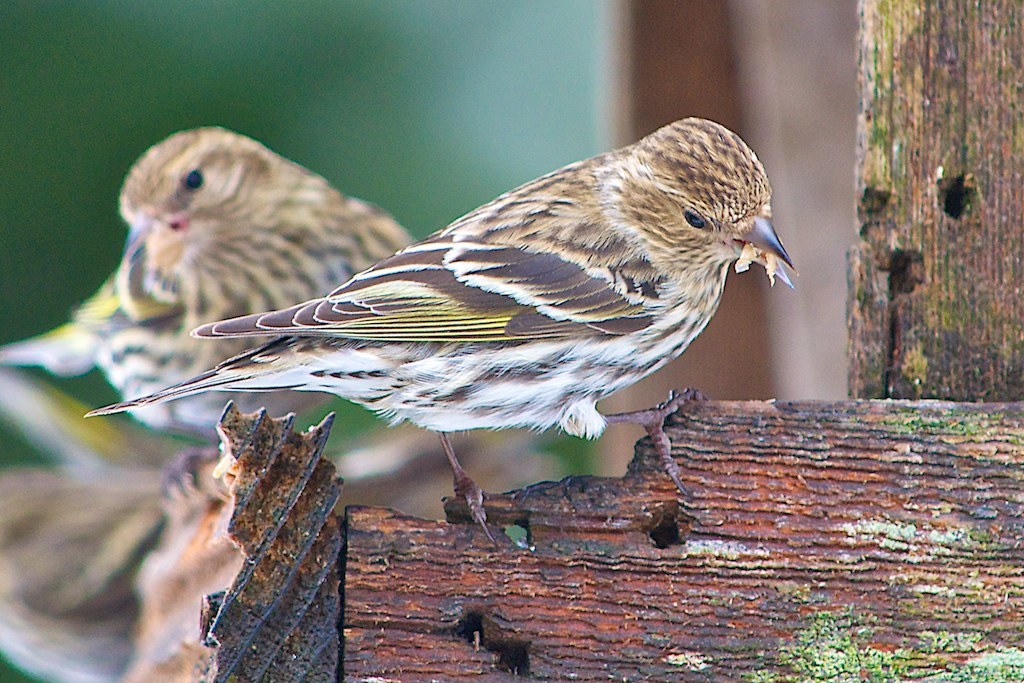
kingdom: Animalia
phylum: Chordata
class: Aves
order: Passeriformes
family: Fringillidae
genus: Spinus
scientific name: Spinus pinus
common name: Pine siskin
